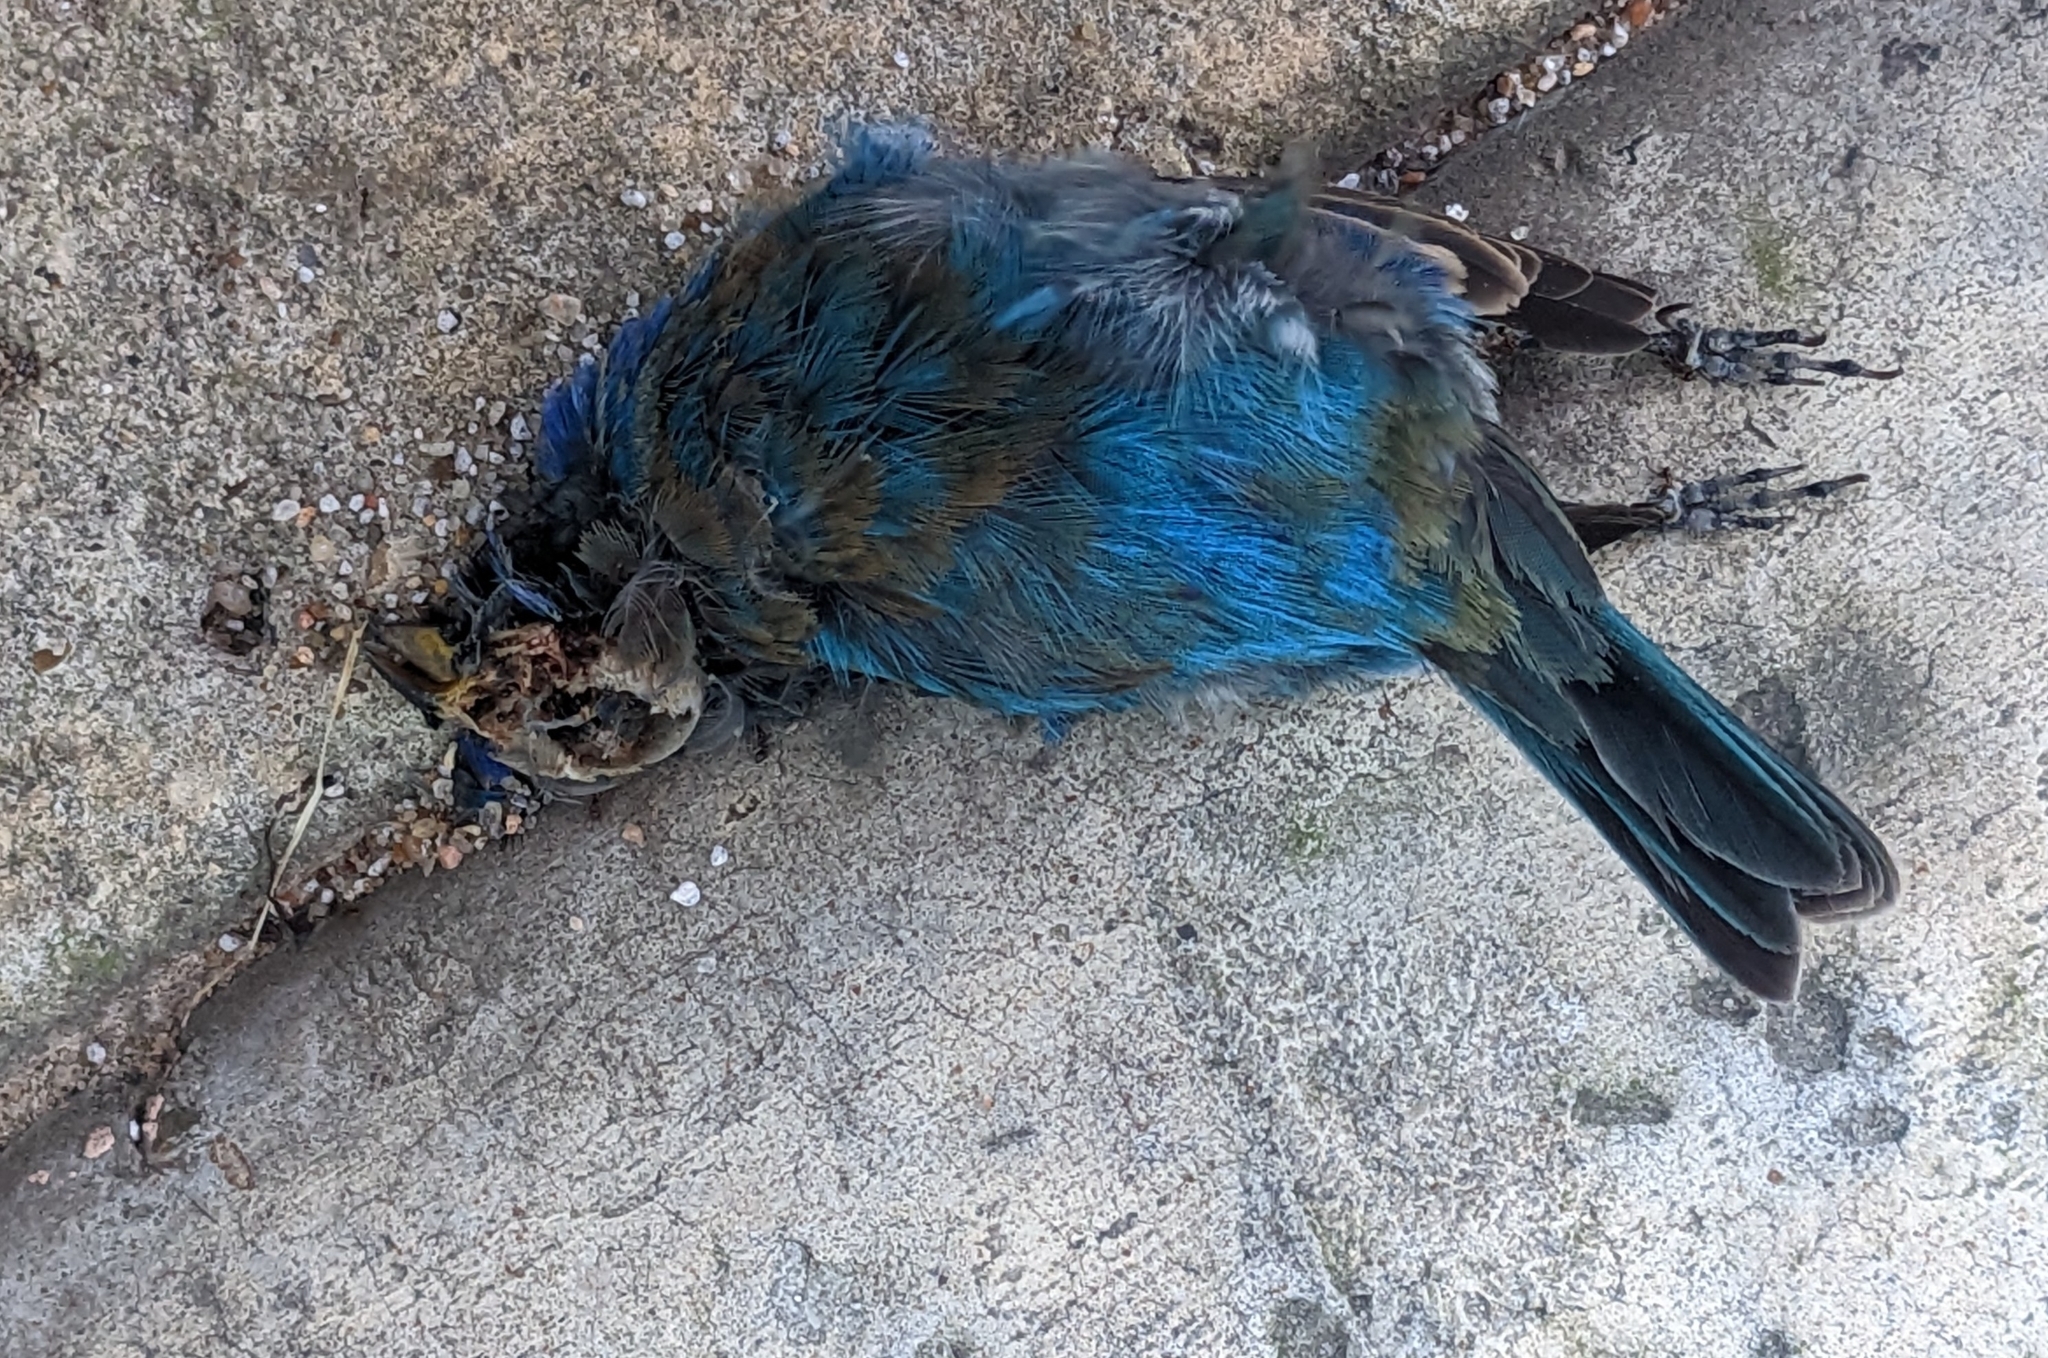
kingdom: Animalia
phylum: Chordata
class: Aves
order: Passeriformes
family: Cardinalidae
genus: Passerina
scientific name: Passerina cyanea
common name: Indigo bunting
